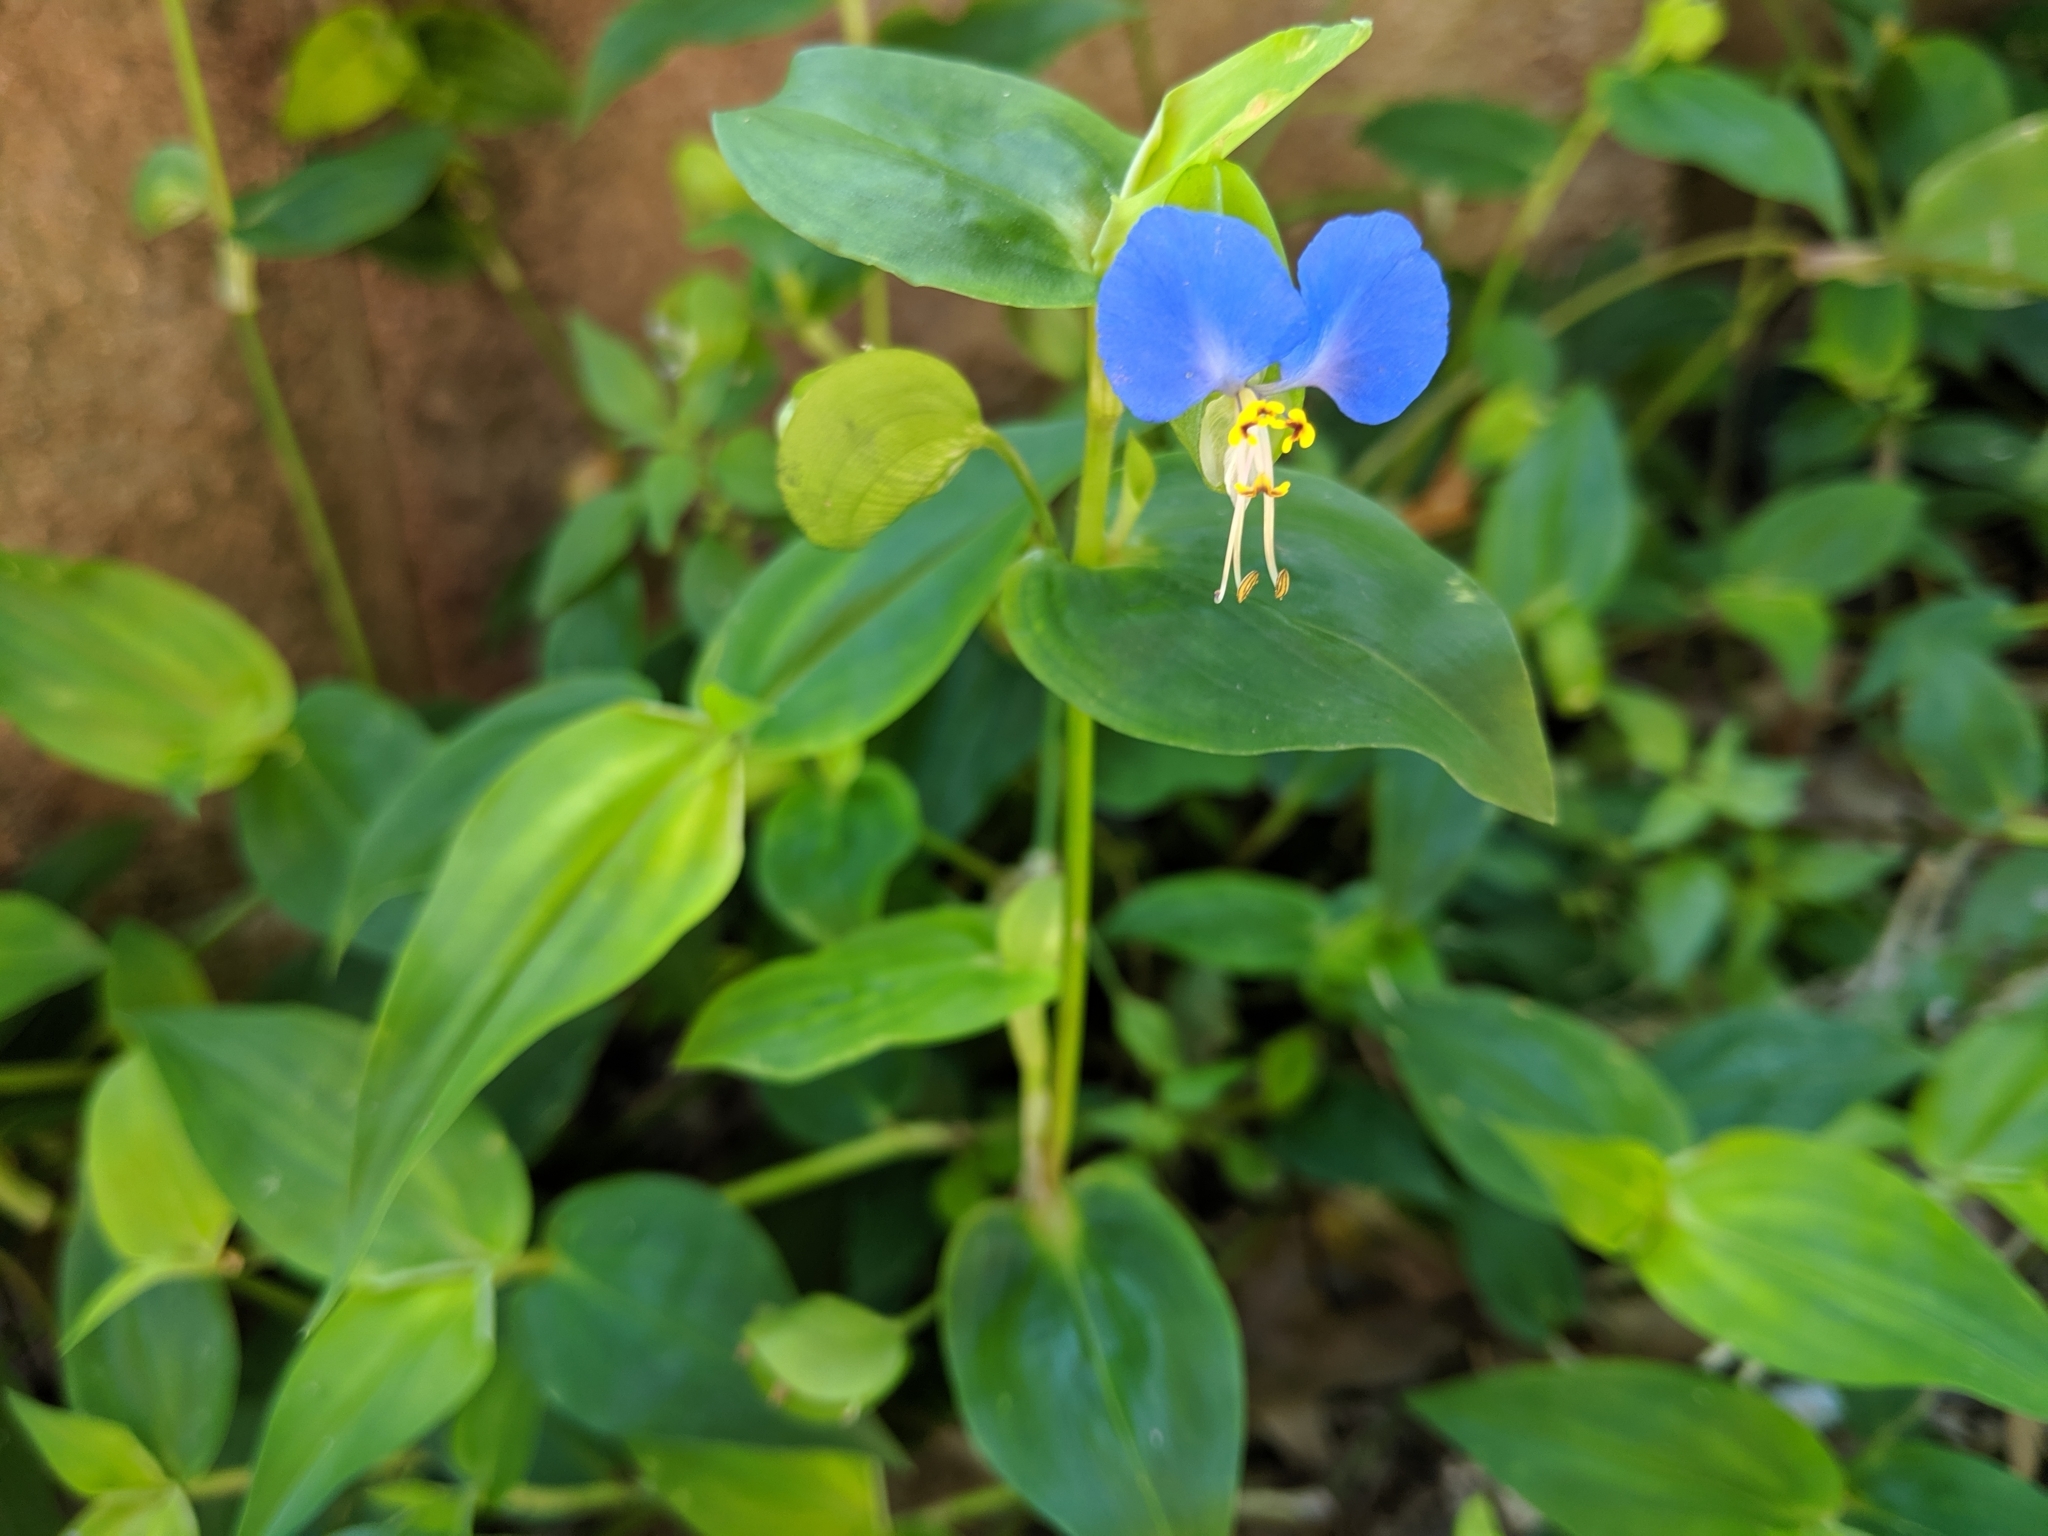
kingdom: Plantae
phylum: Tracheophyta
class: Liliopsida
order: Commelinales
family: Commelinaceae
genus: Commelina
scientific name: Commelina communis
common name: Asiatic dayflower
